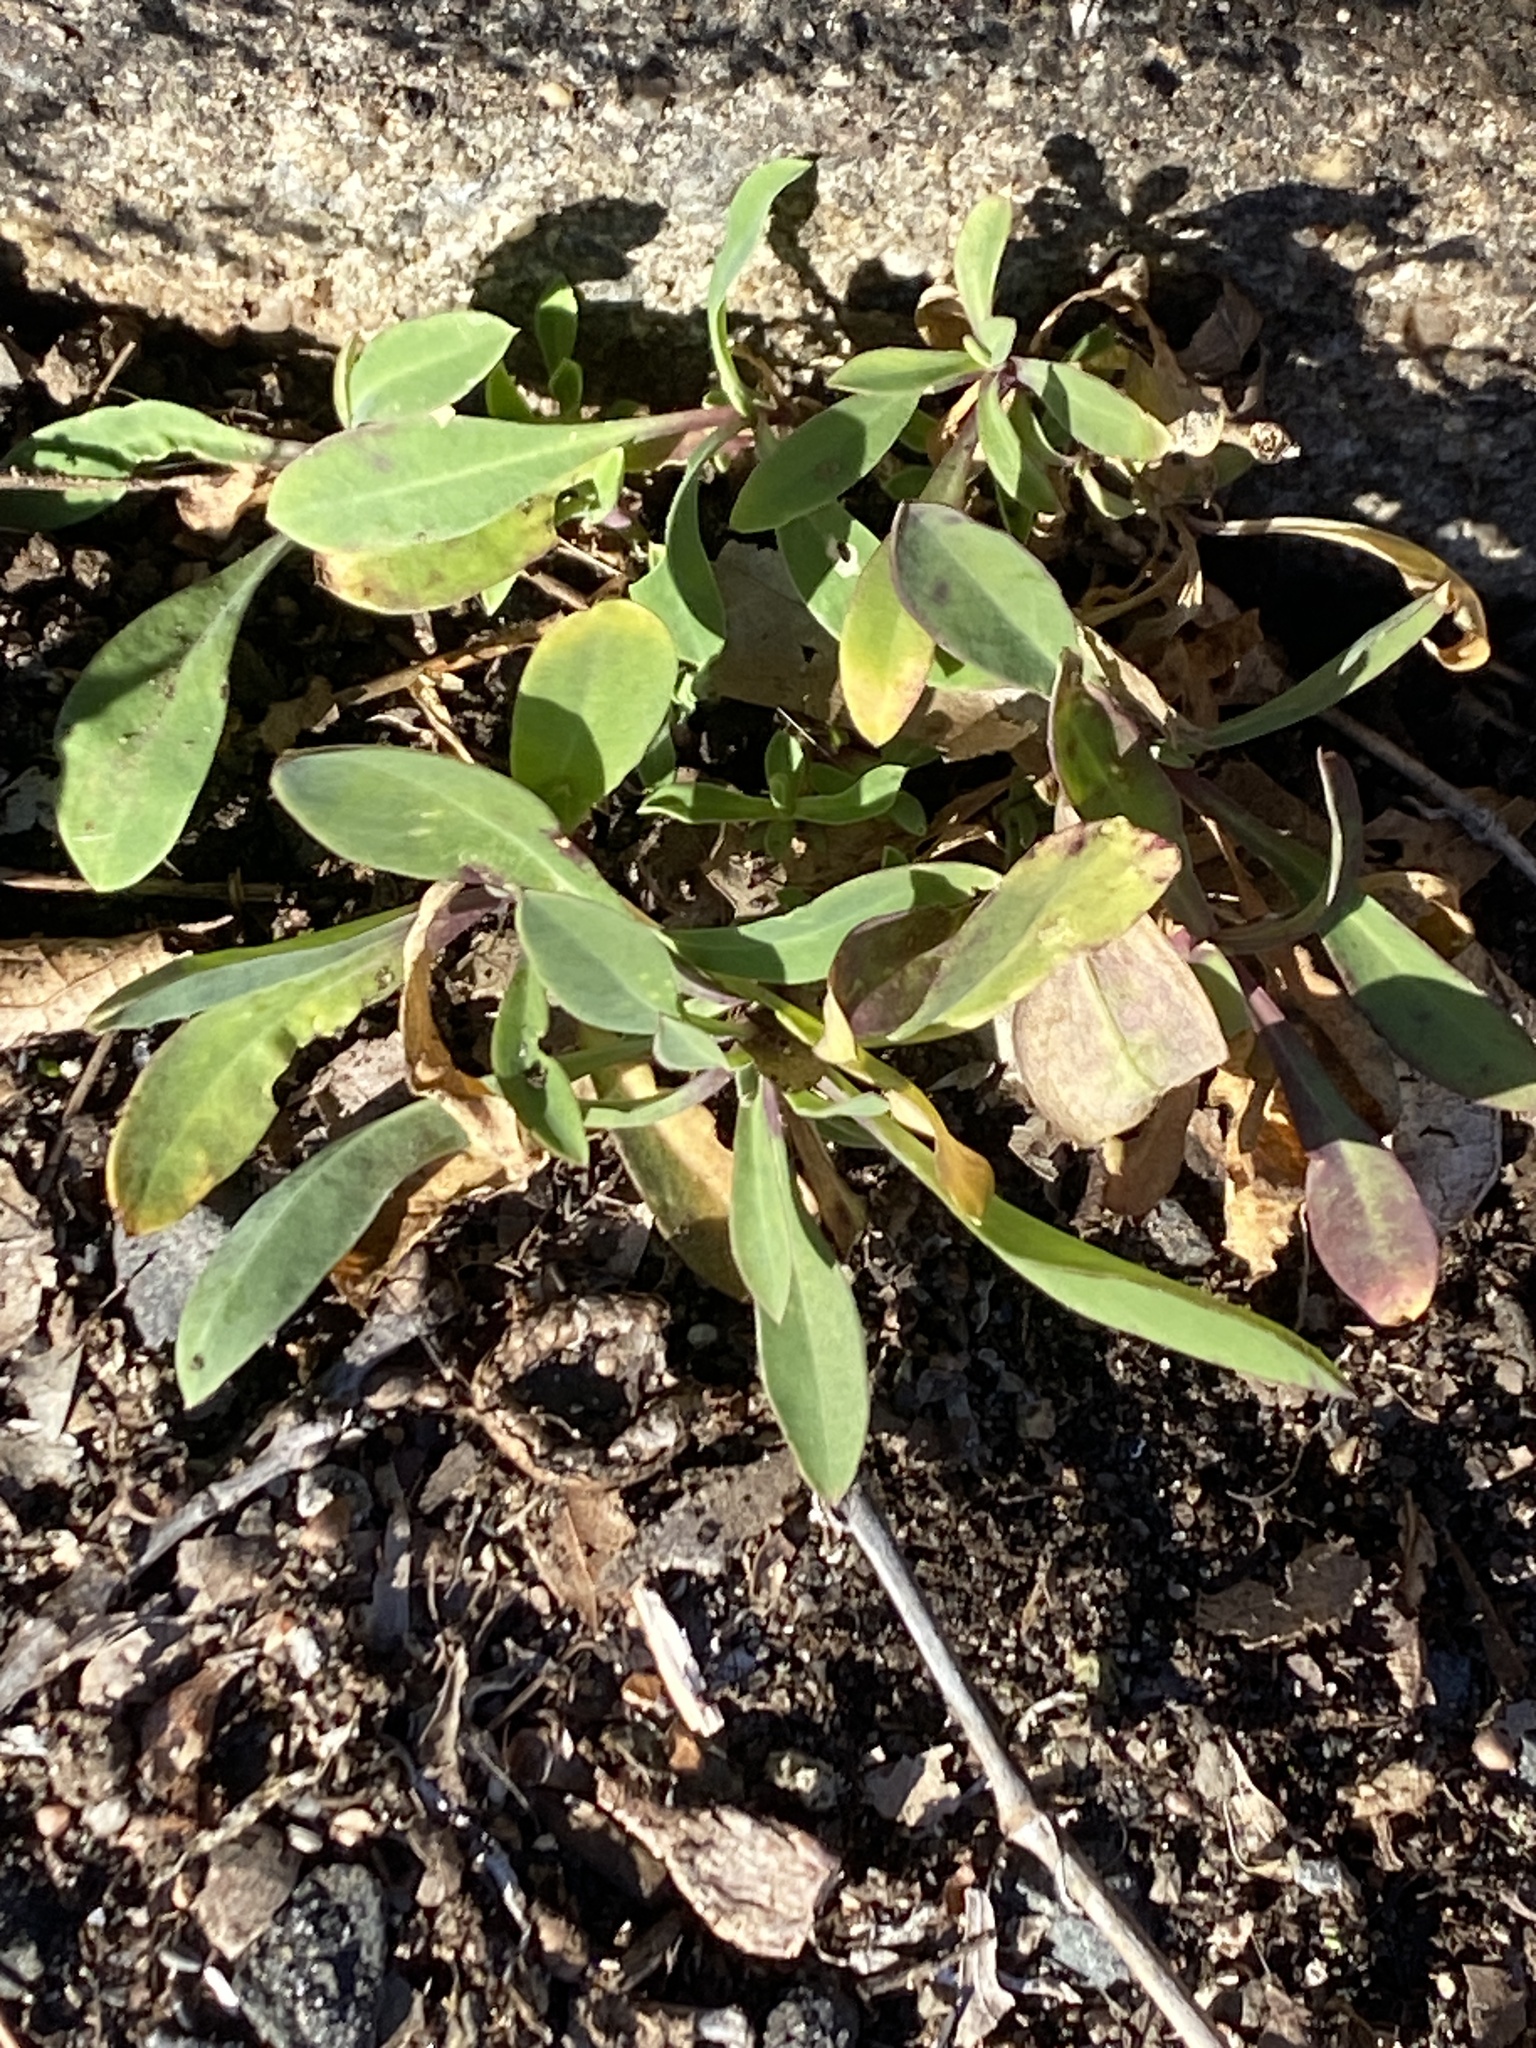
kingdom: Plantae
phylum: Tracheophyta
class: Magnoliopsida
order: Caryophyllales
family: Caryophyllaceae
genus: Silene
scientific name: Silene vulgaris
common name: Bladder campion
